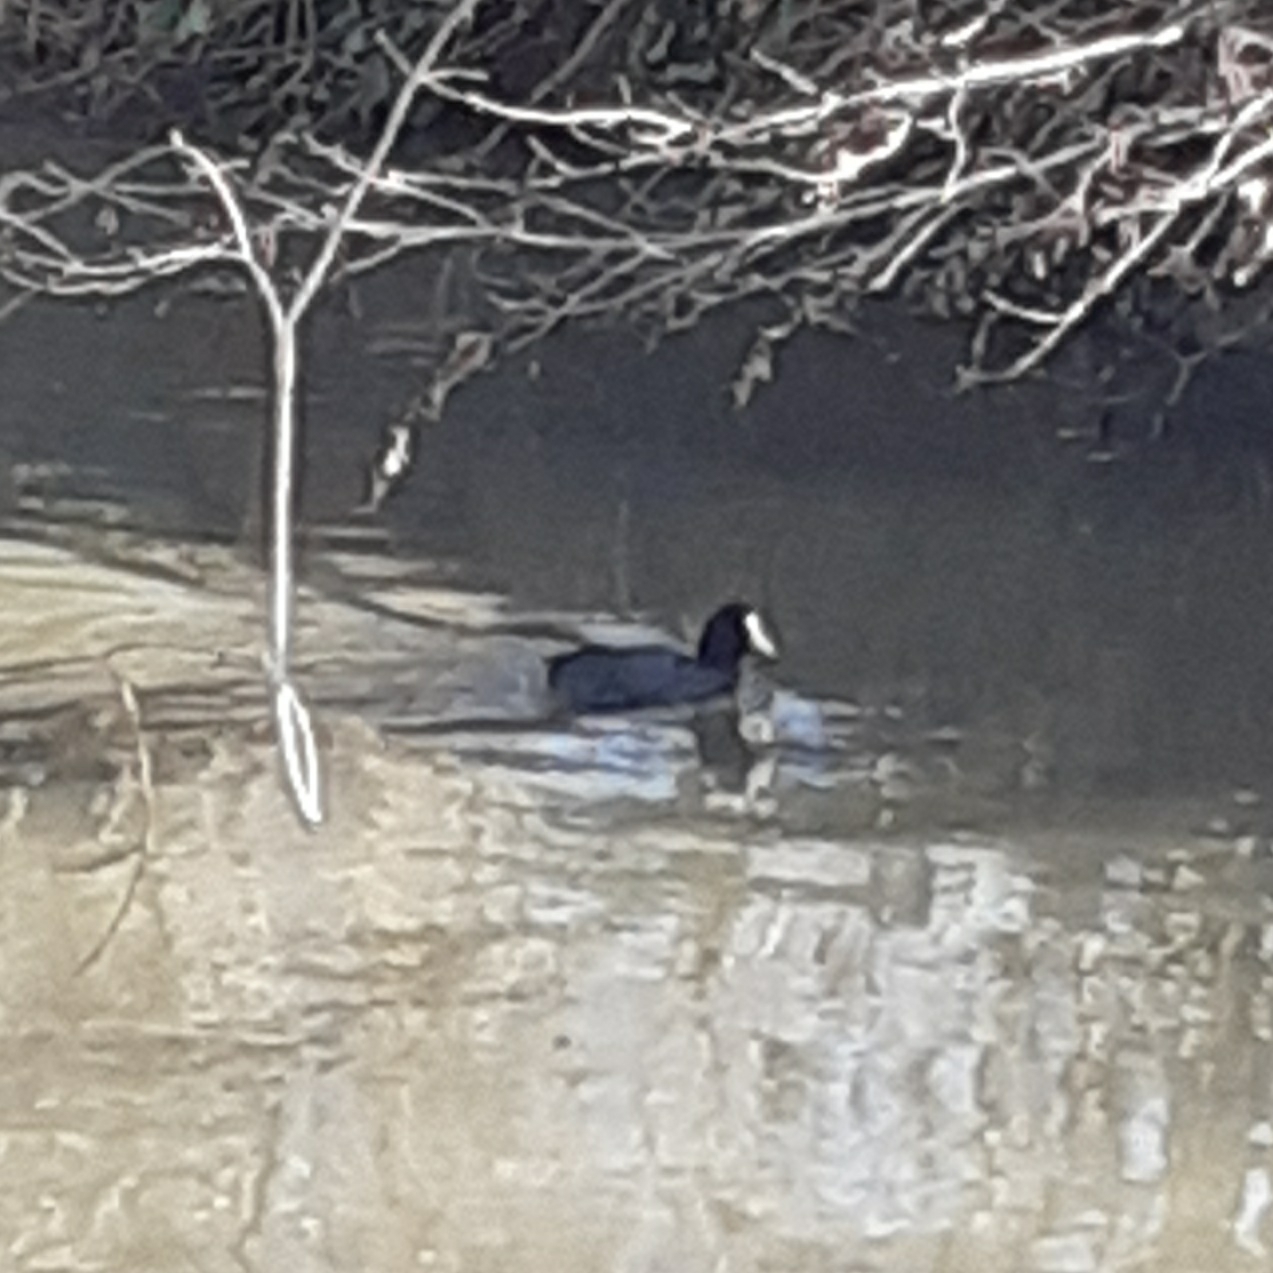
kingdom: Animalia
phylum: Chordata
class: Aves
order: Gruiformes
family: Rallidae
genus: Fulica
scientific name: Fulica atra
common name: Eurasian coot
